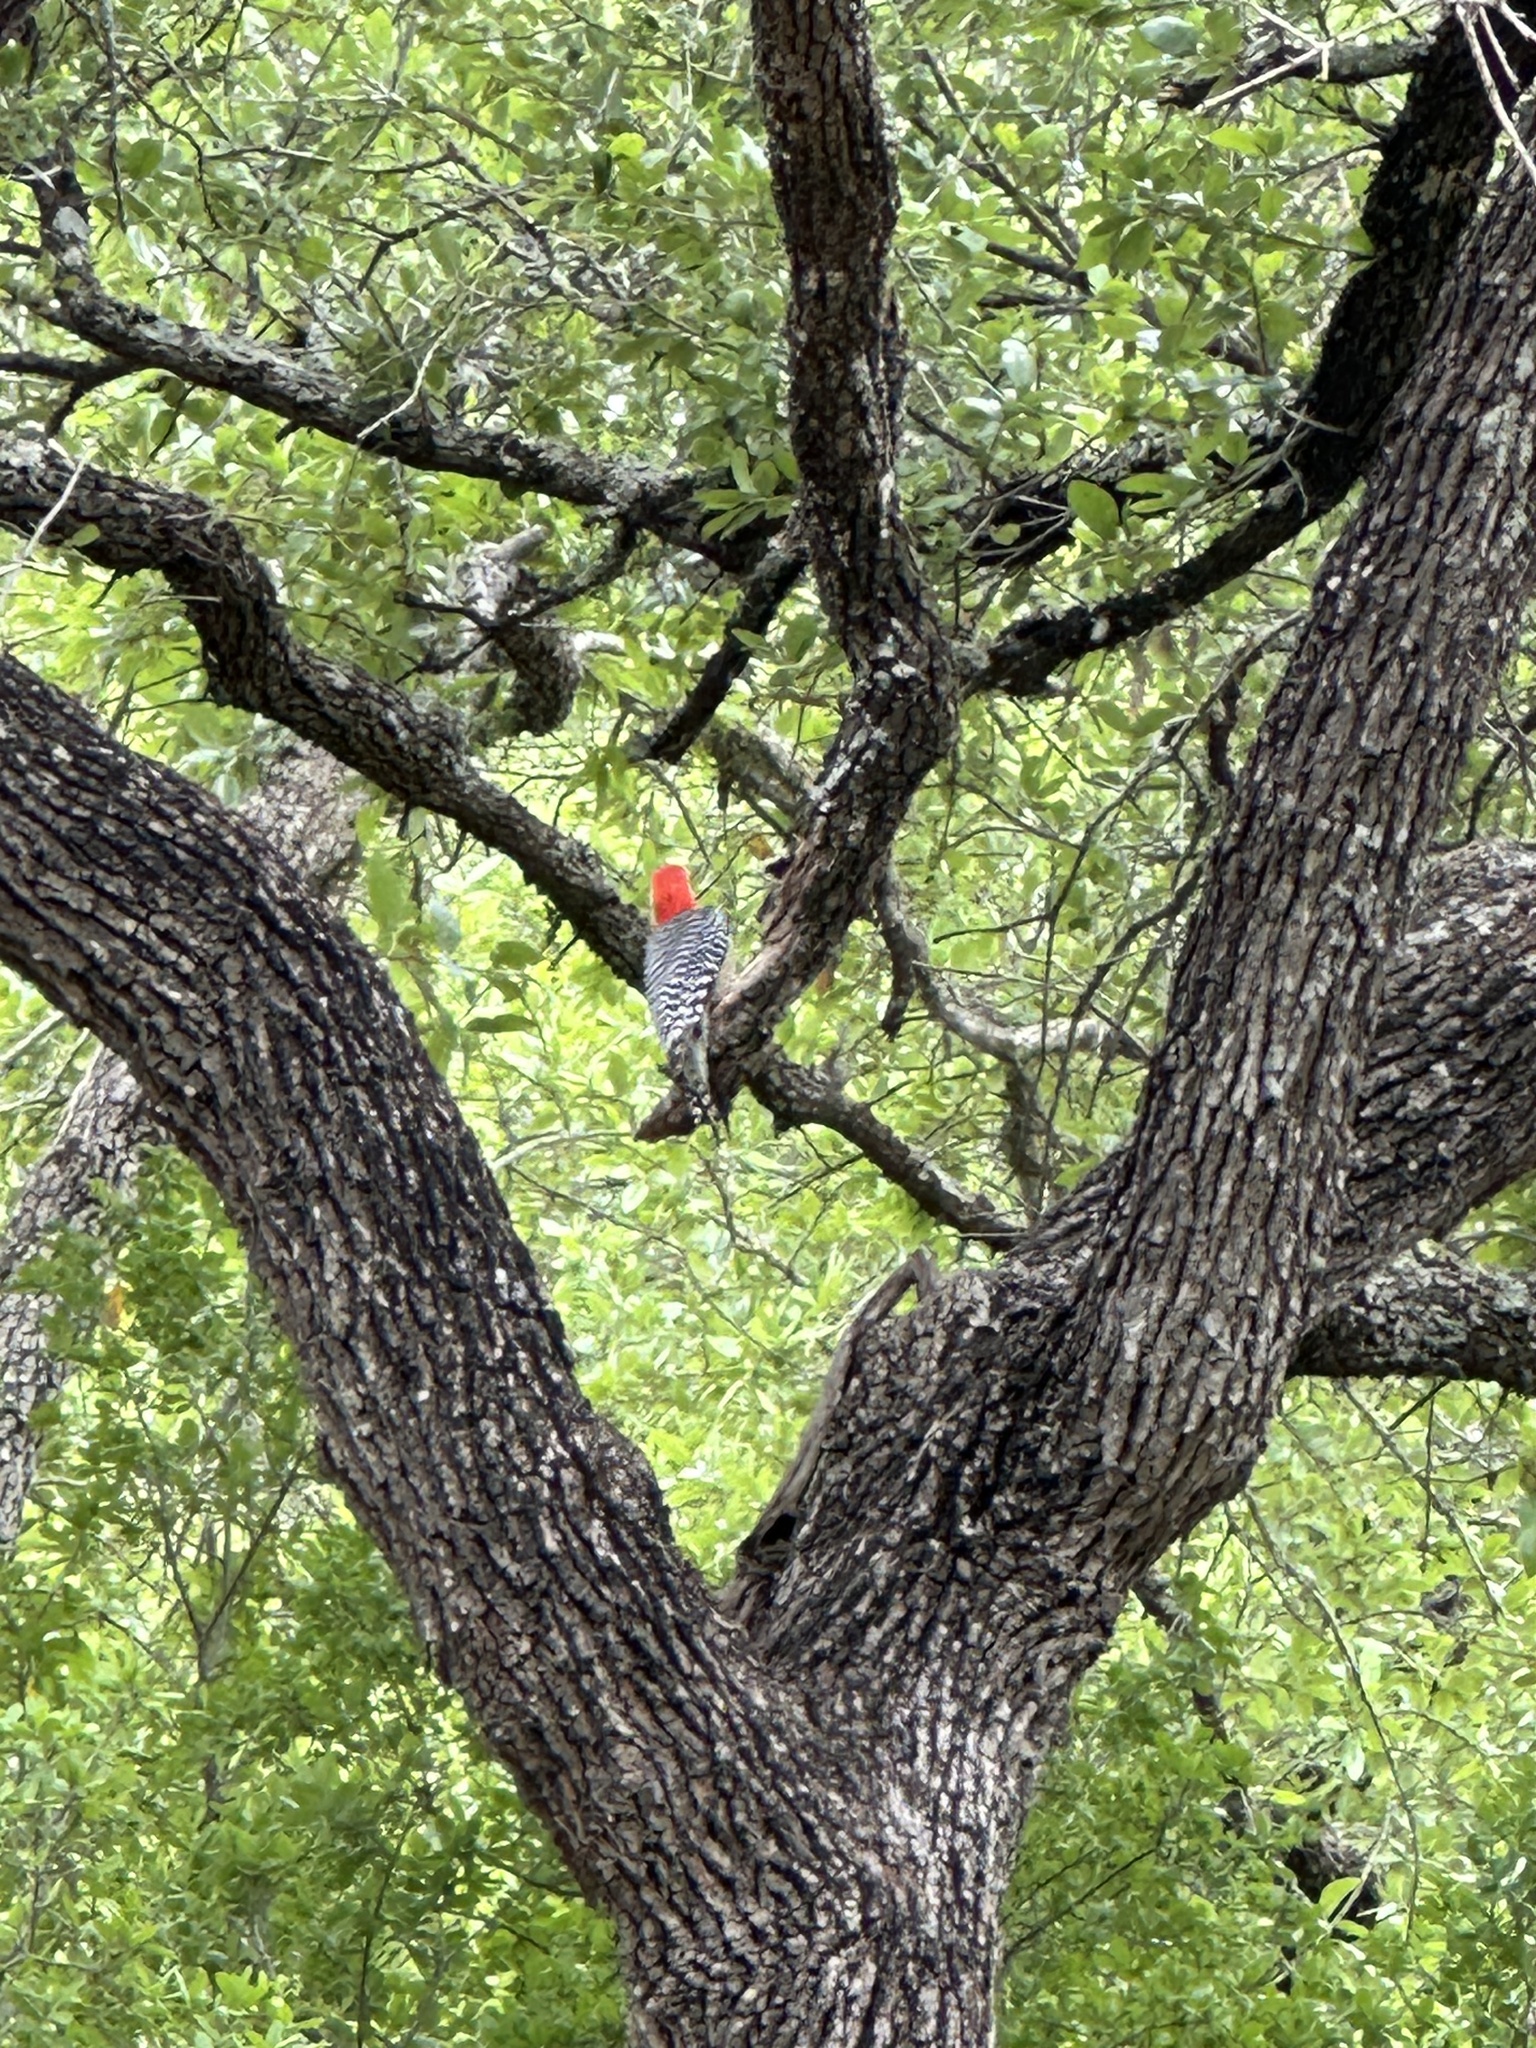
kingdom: Animalia
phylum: Chordata
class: Aves
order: Piciformes
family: Picidae
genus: Melanerpes
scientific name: Melanerpes carolinus
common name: Red-bellied woodpecker
